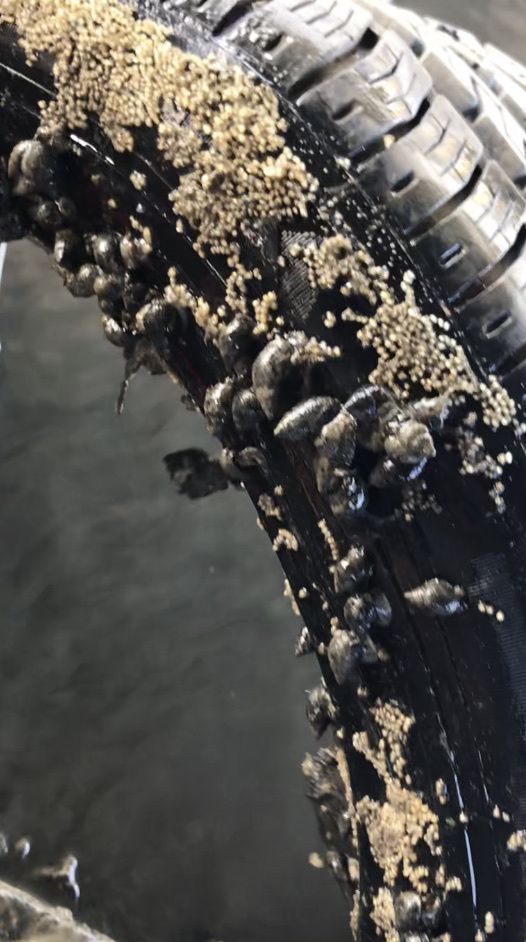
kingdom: Animalia
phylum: Mollusca
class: Gastropoda
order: Neogastropoda
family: Nassariidae
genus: Ilyanassa
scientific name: Ilyanassa obsoleta
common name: Eastern mudsnail
